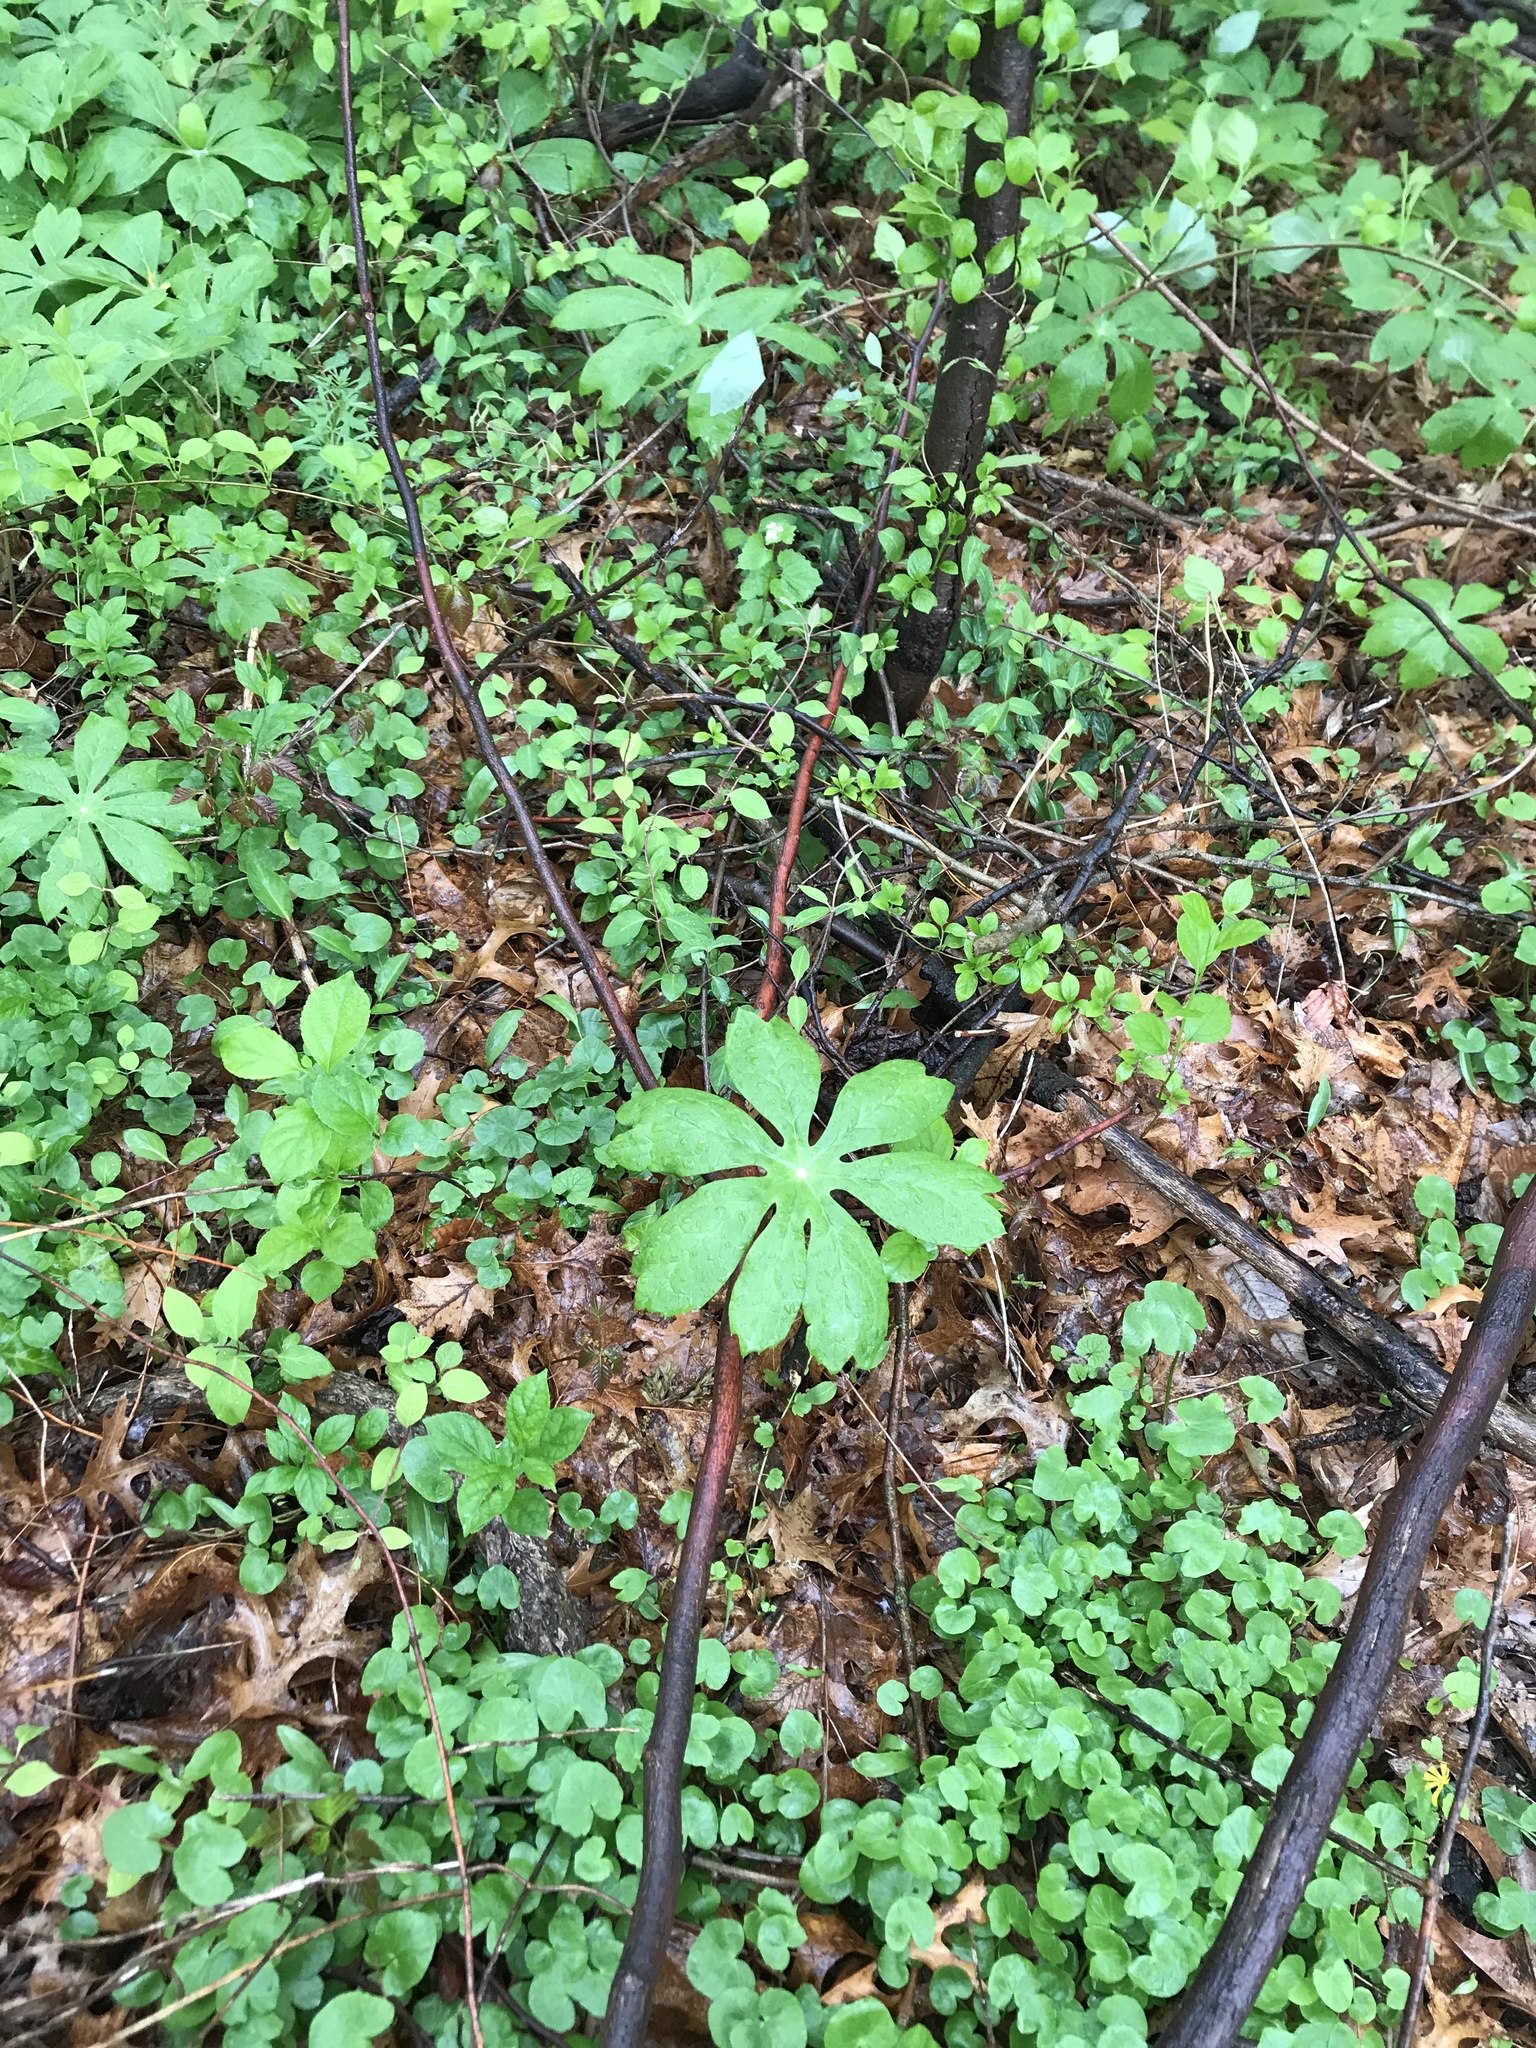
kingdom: Plantae
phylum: Tracheophyta
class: Magnoliopsida
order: Ranunculales
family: Berberidaceae
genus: Podophyllum
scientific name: Podophyllum peltatum
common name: Wild mandrake
